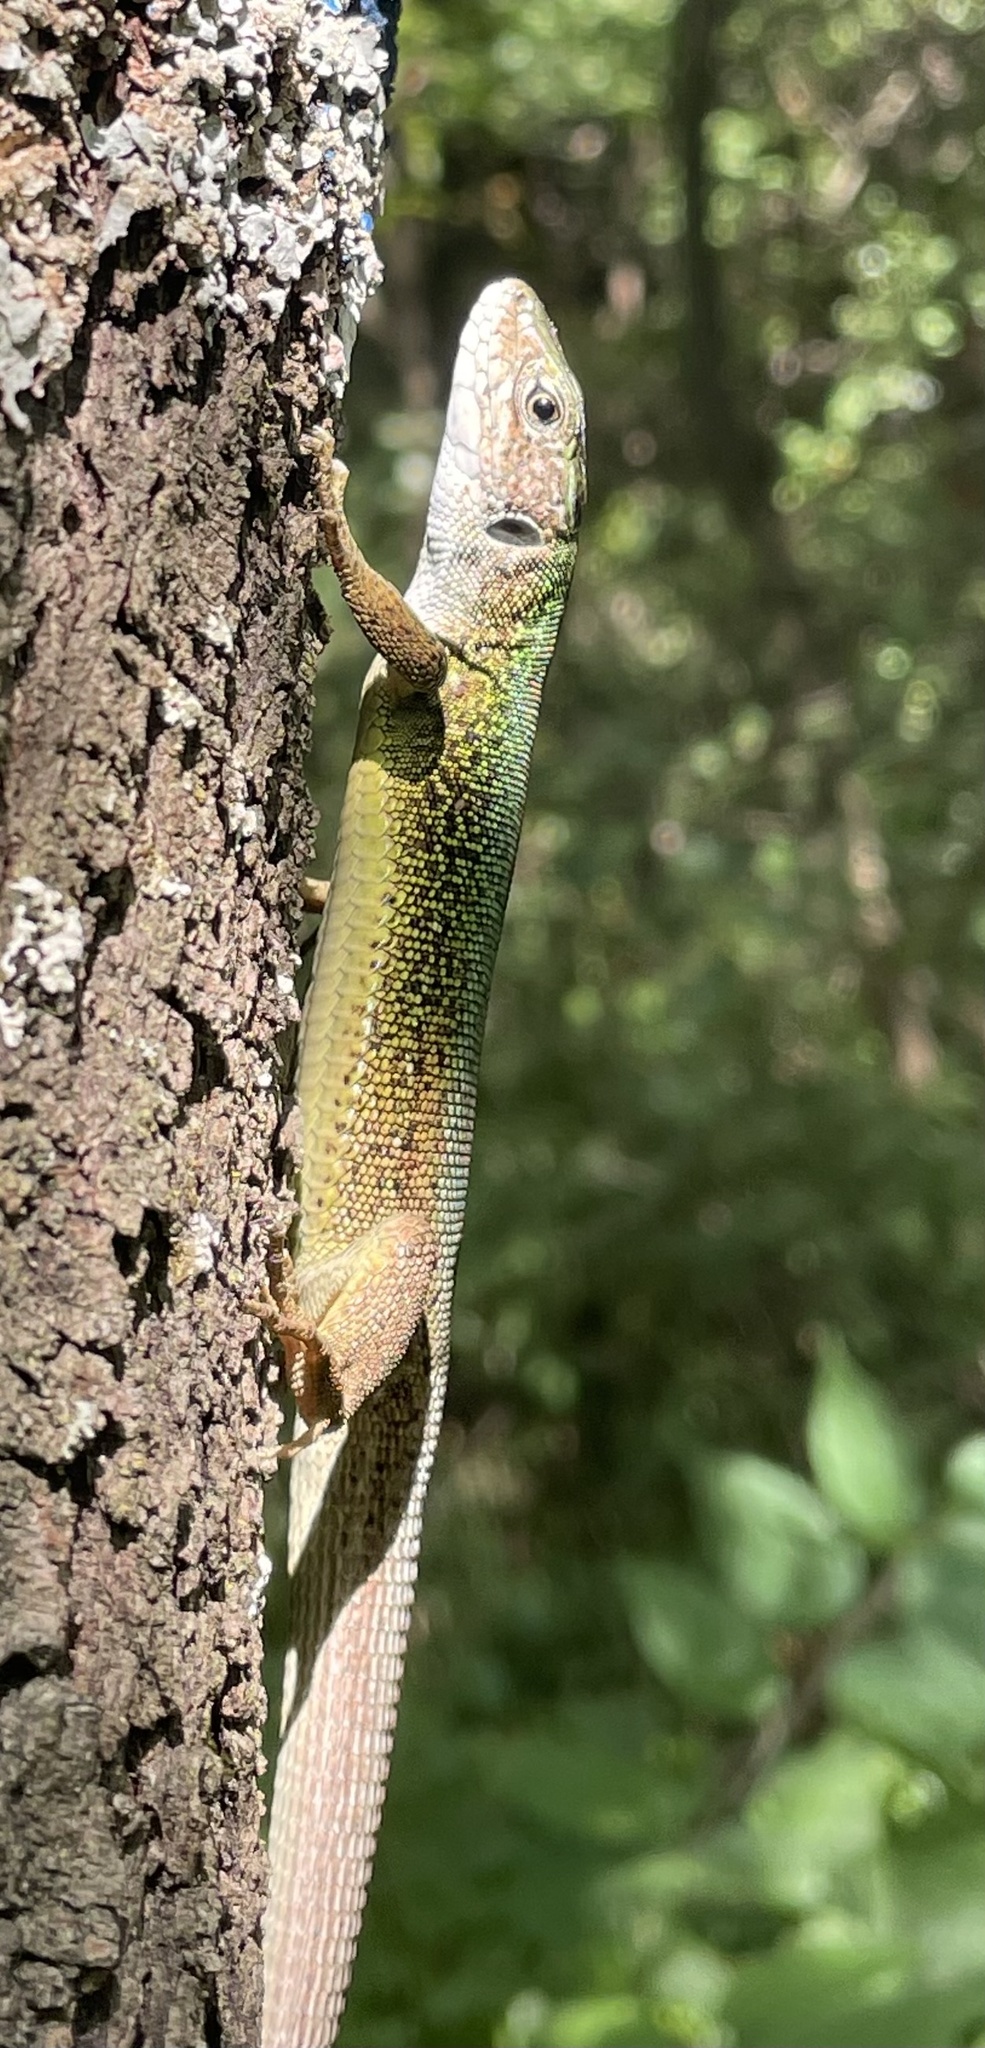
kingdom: Animalia
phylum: Chordata
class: Squamata
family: Lacertidae
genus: Lacerta
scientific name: Lacerta viridis
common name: European green lizard
